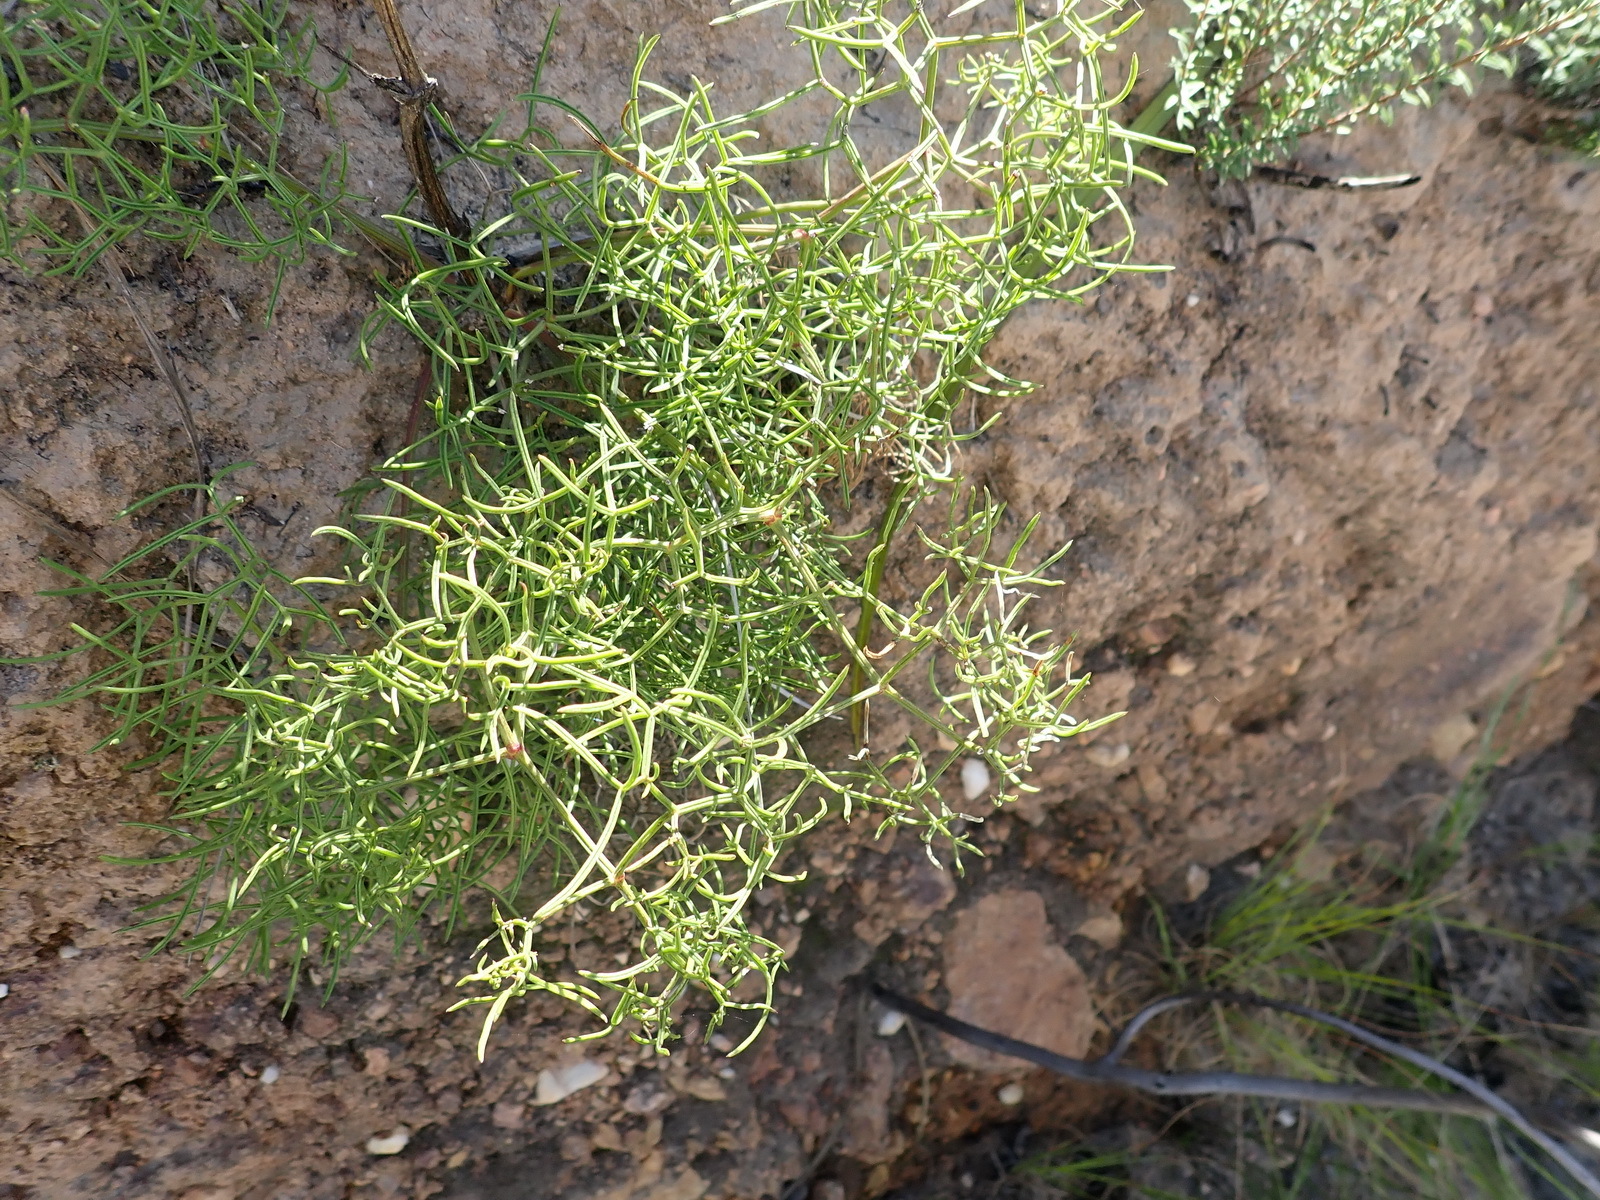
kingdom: Plantae
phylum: Tracheophyta
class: Magnoliopsida
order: Apiales
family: Apiaceae
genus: Nanobubon
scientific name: Nanobubon capillaceum
